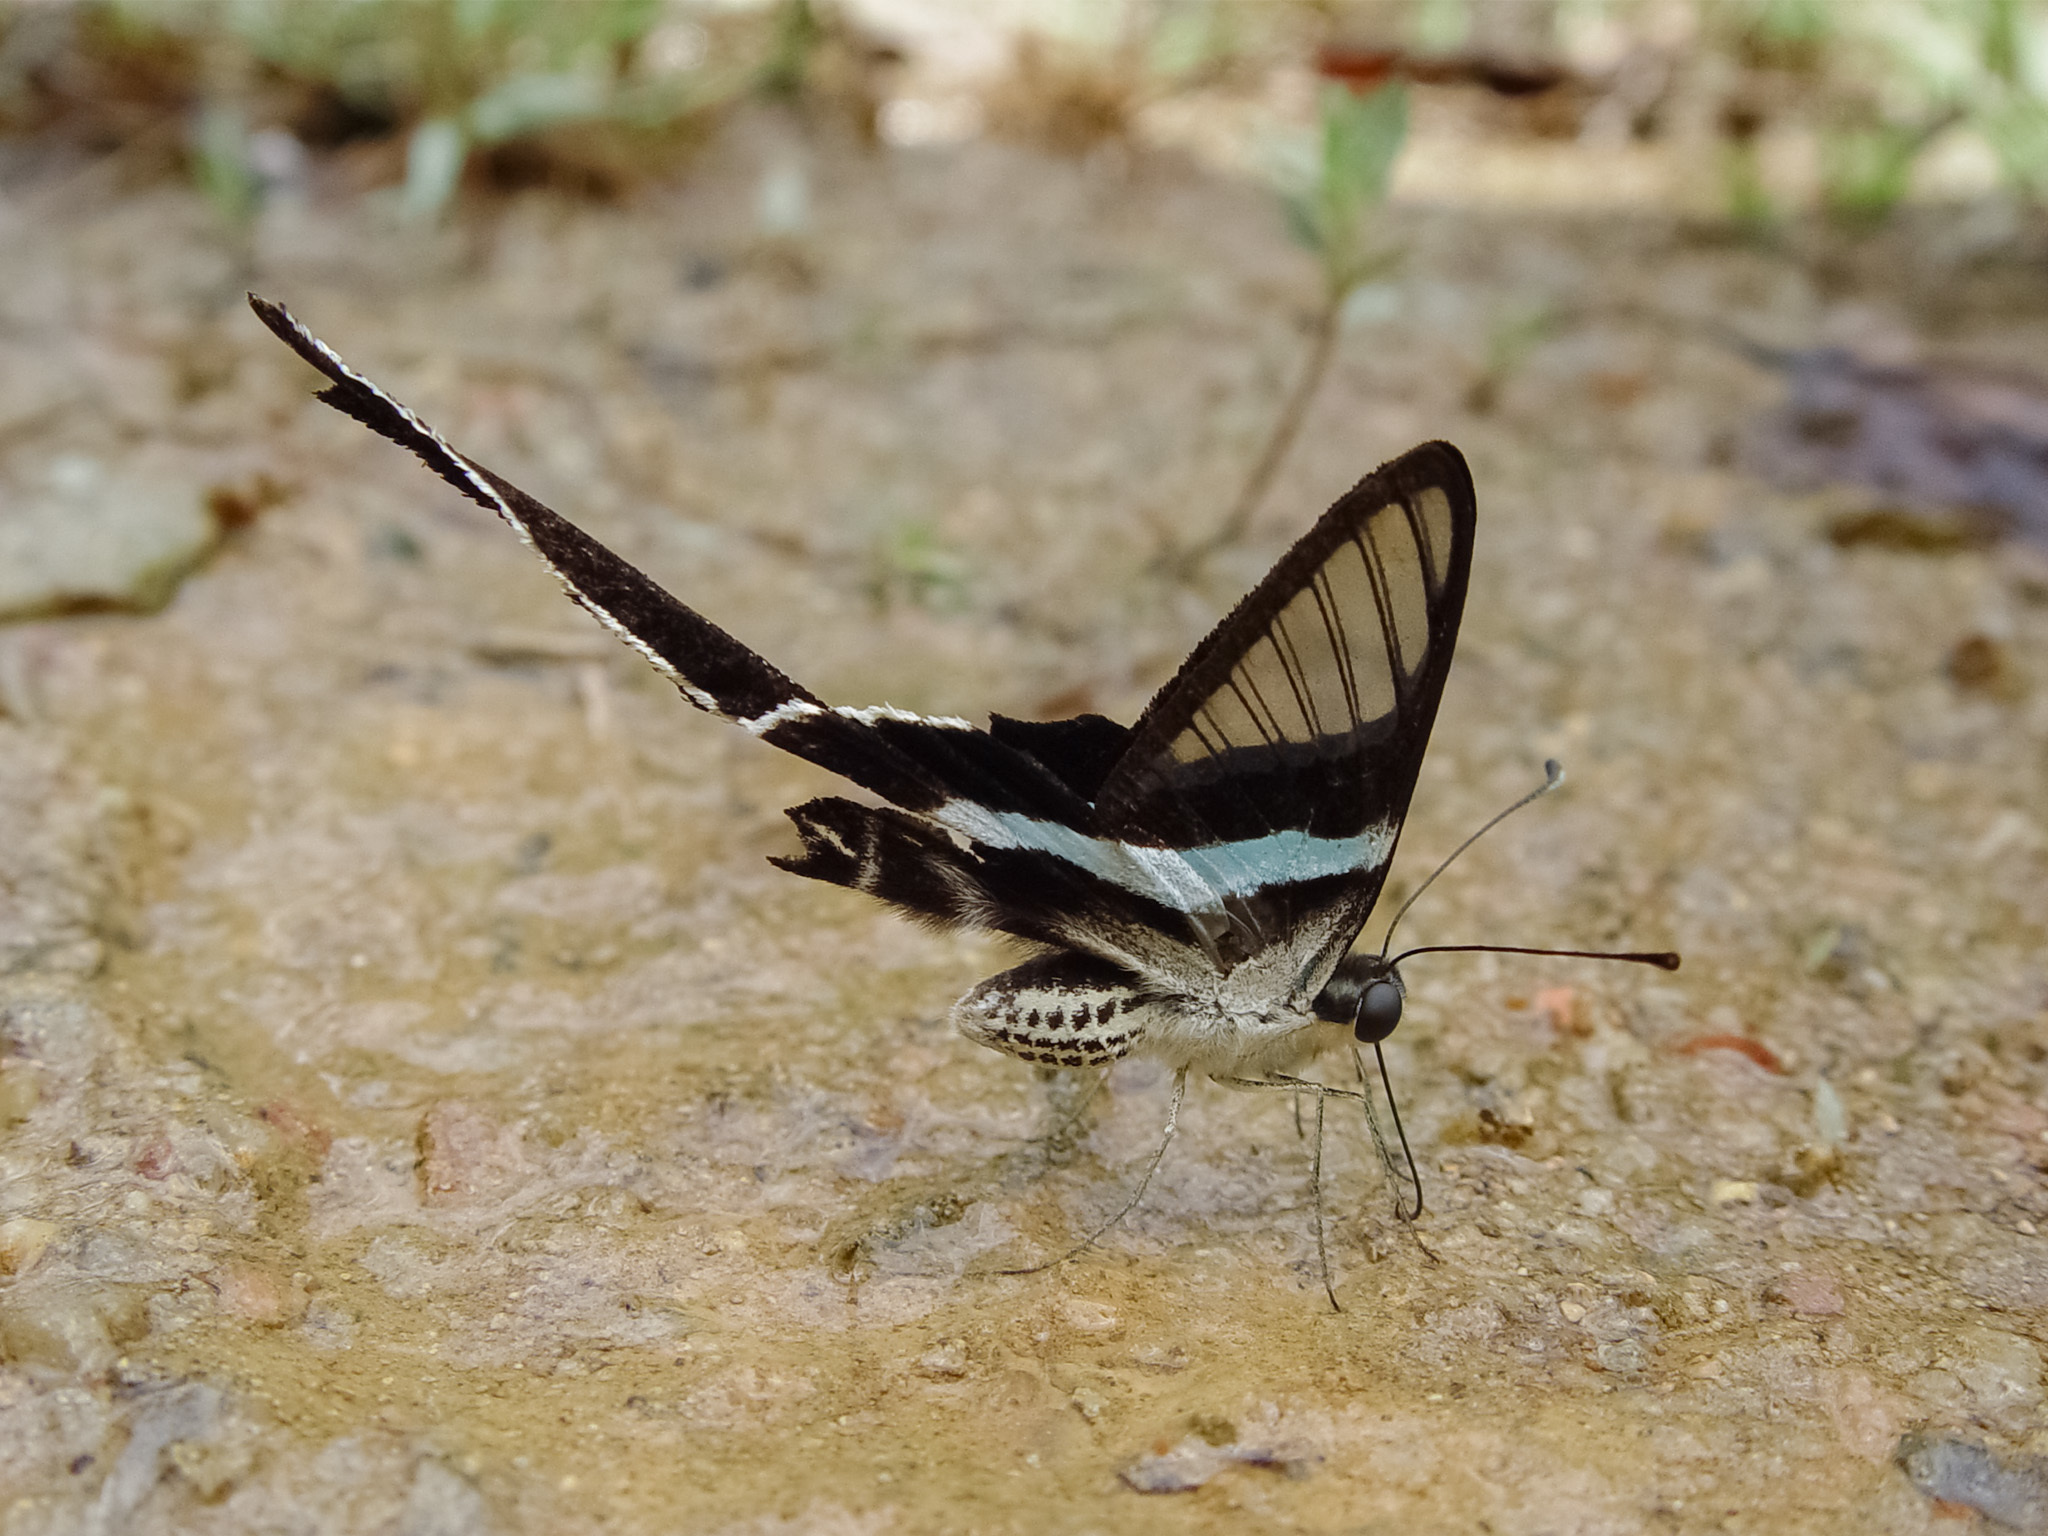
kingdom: Animalia
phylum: Arthropoda
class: Insecta
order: Lepidoptera
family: Papilionidae
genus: Lamproptera
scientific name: Lamproptera meges
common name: Green dragontail
